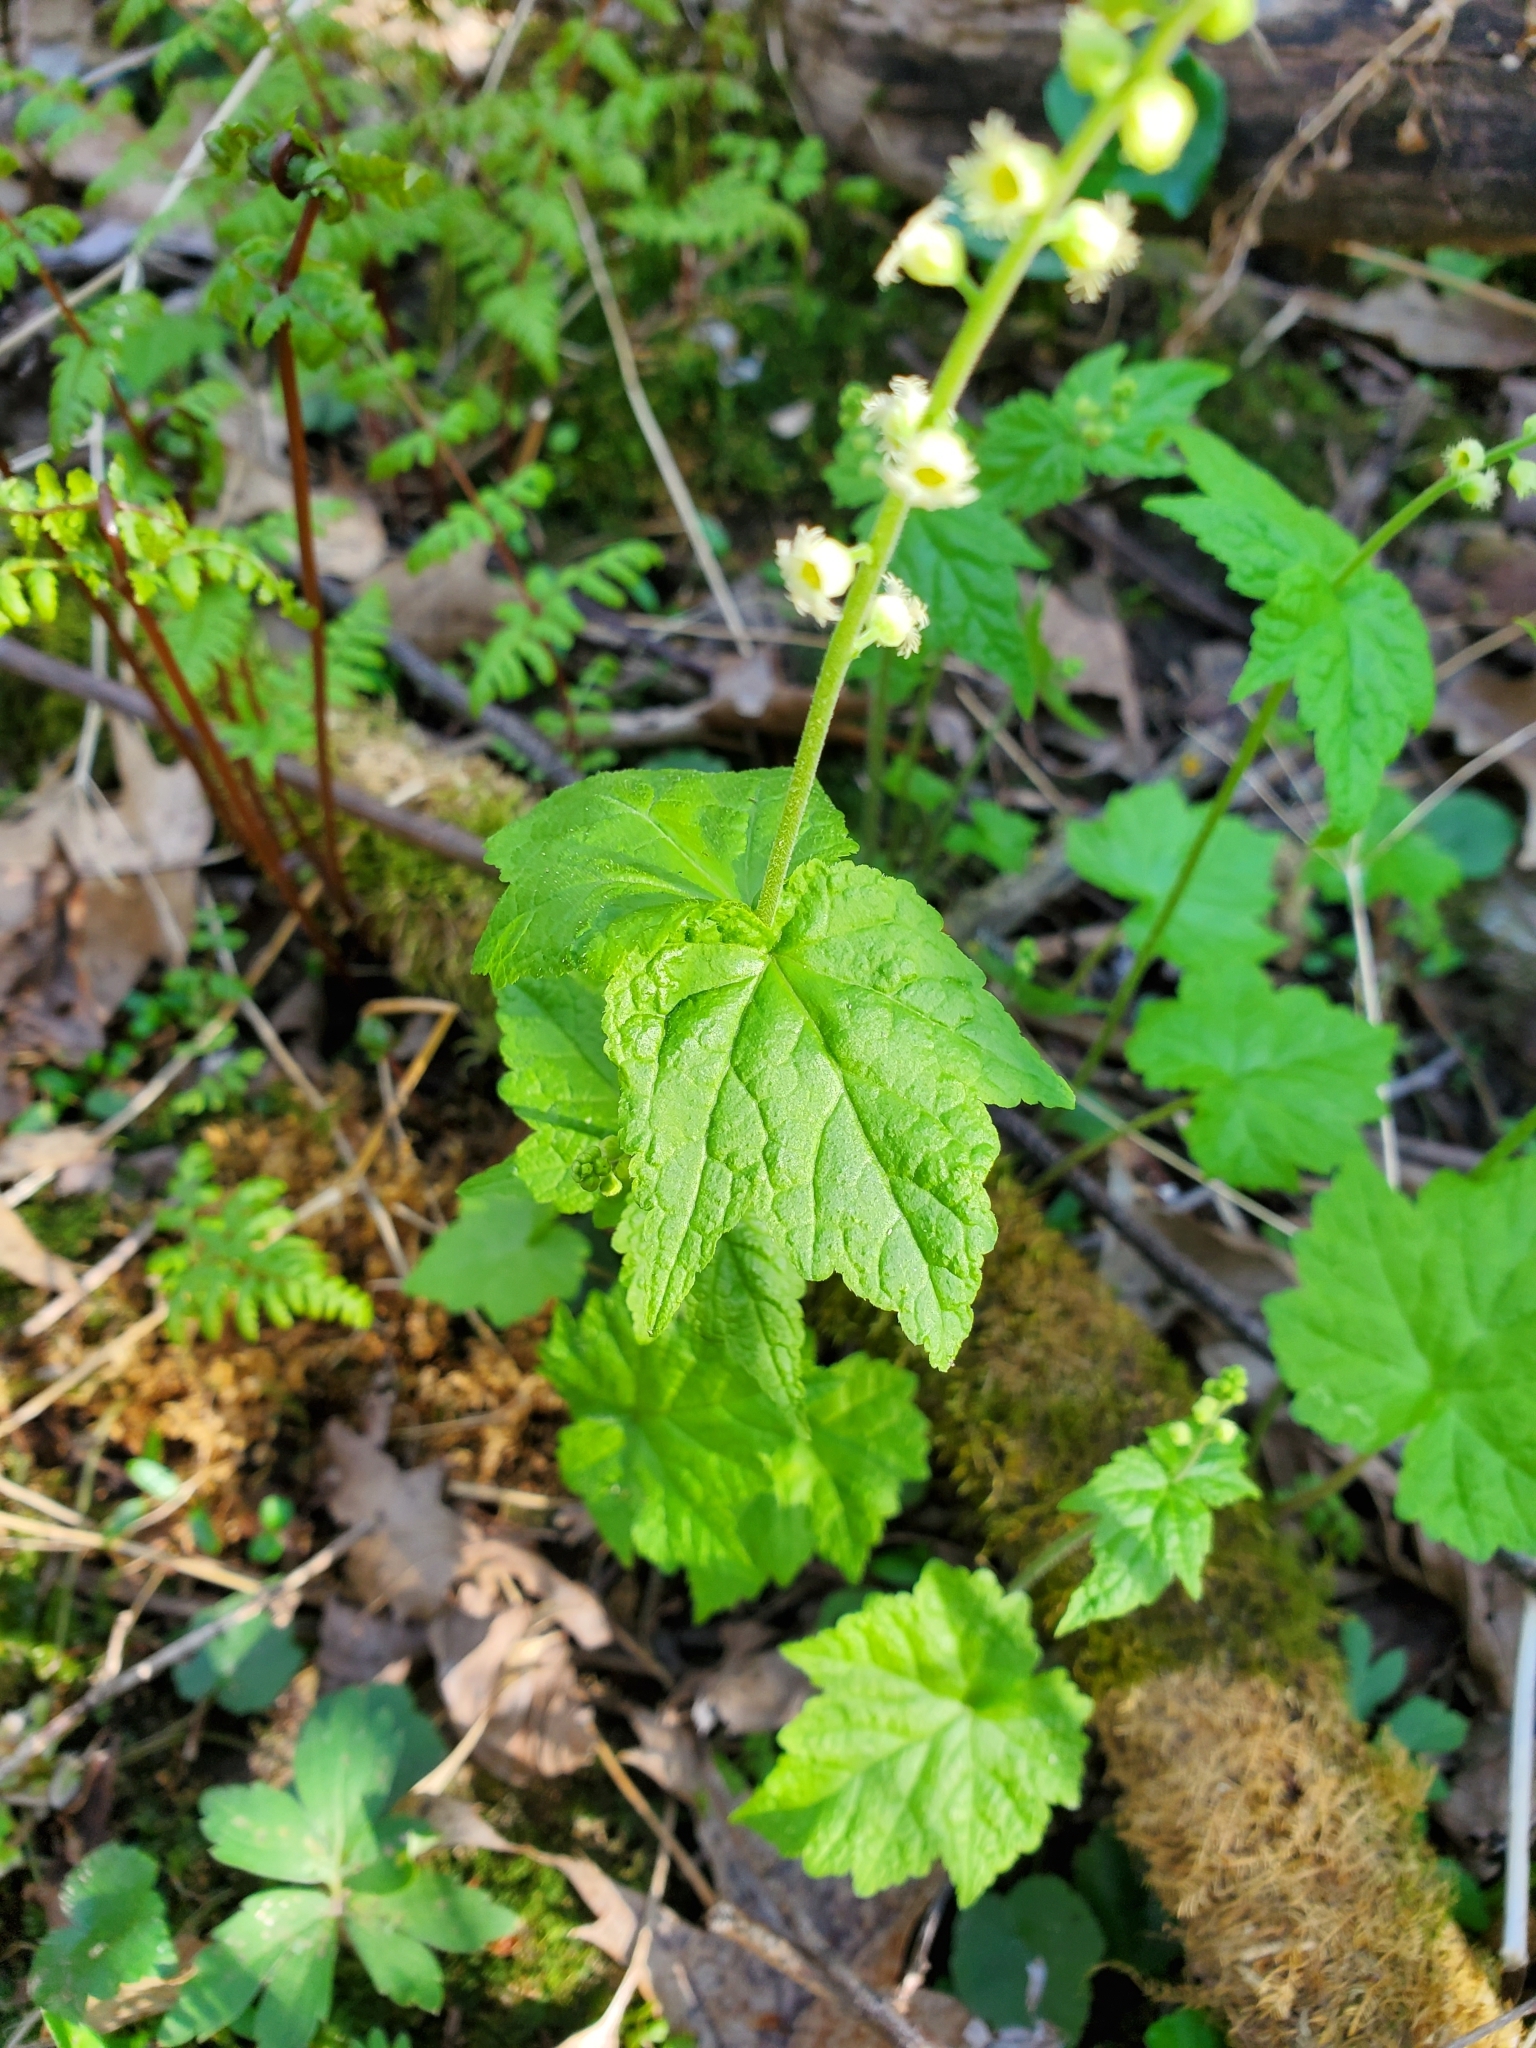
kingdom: Plantae
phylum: Tracheophyta
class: Magnoliopsida
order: Saxifragales
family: Saxifragaceae
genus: Mitella
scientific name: Mitella diphylla
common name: Coolwort
